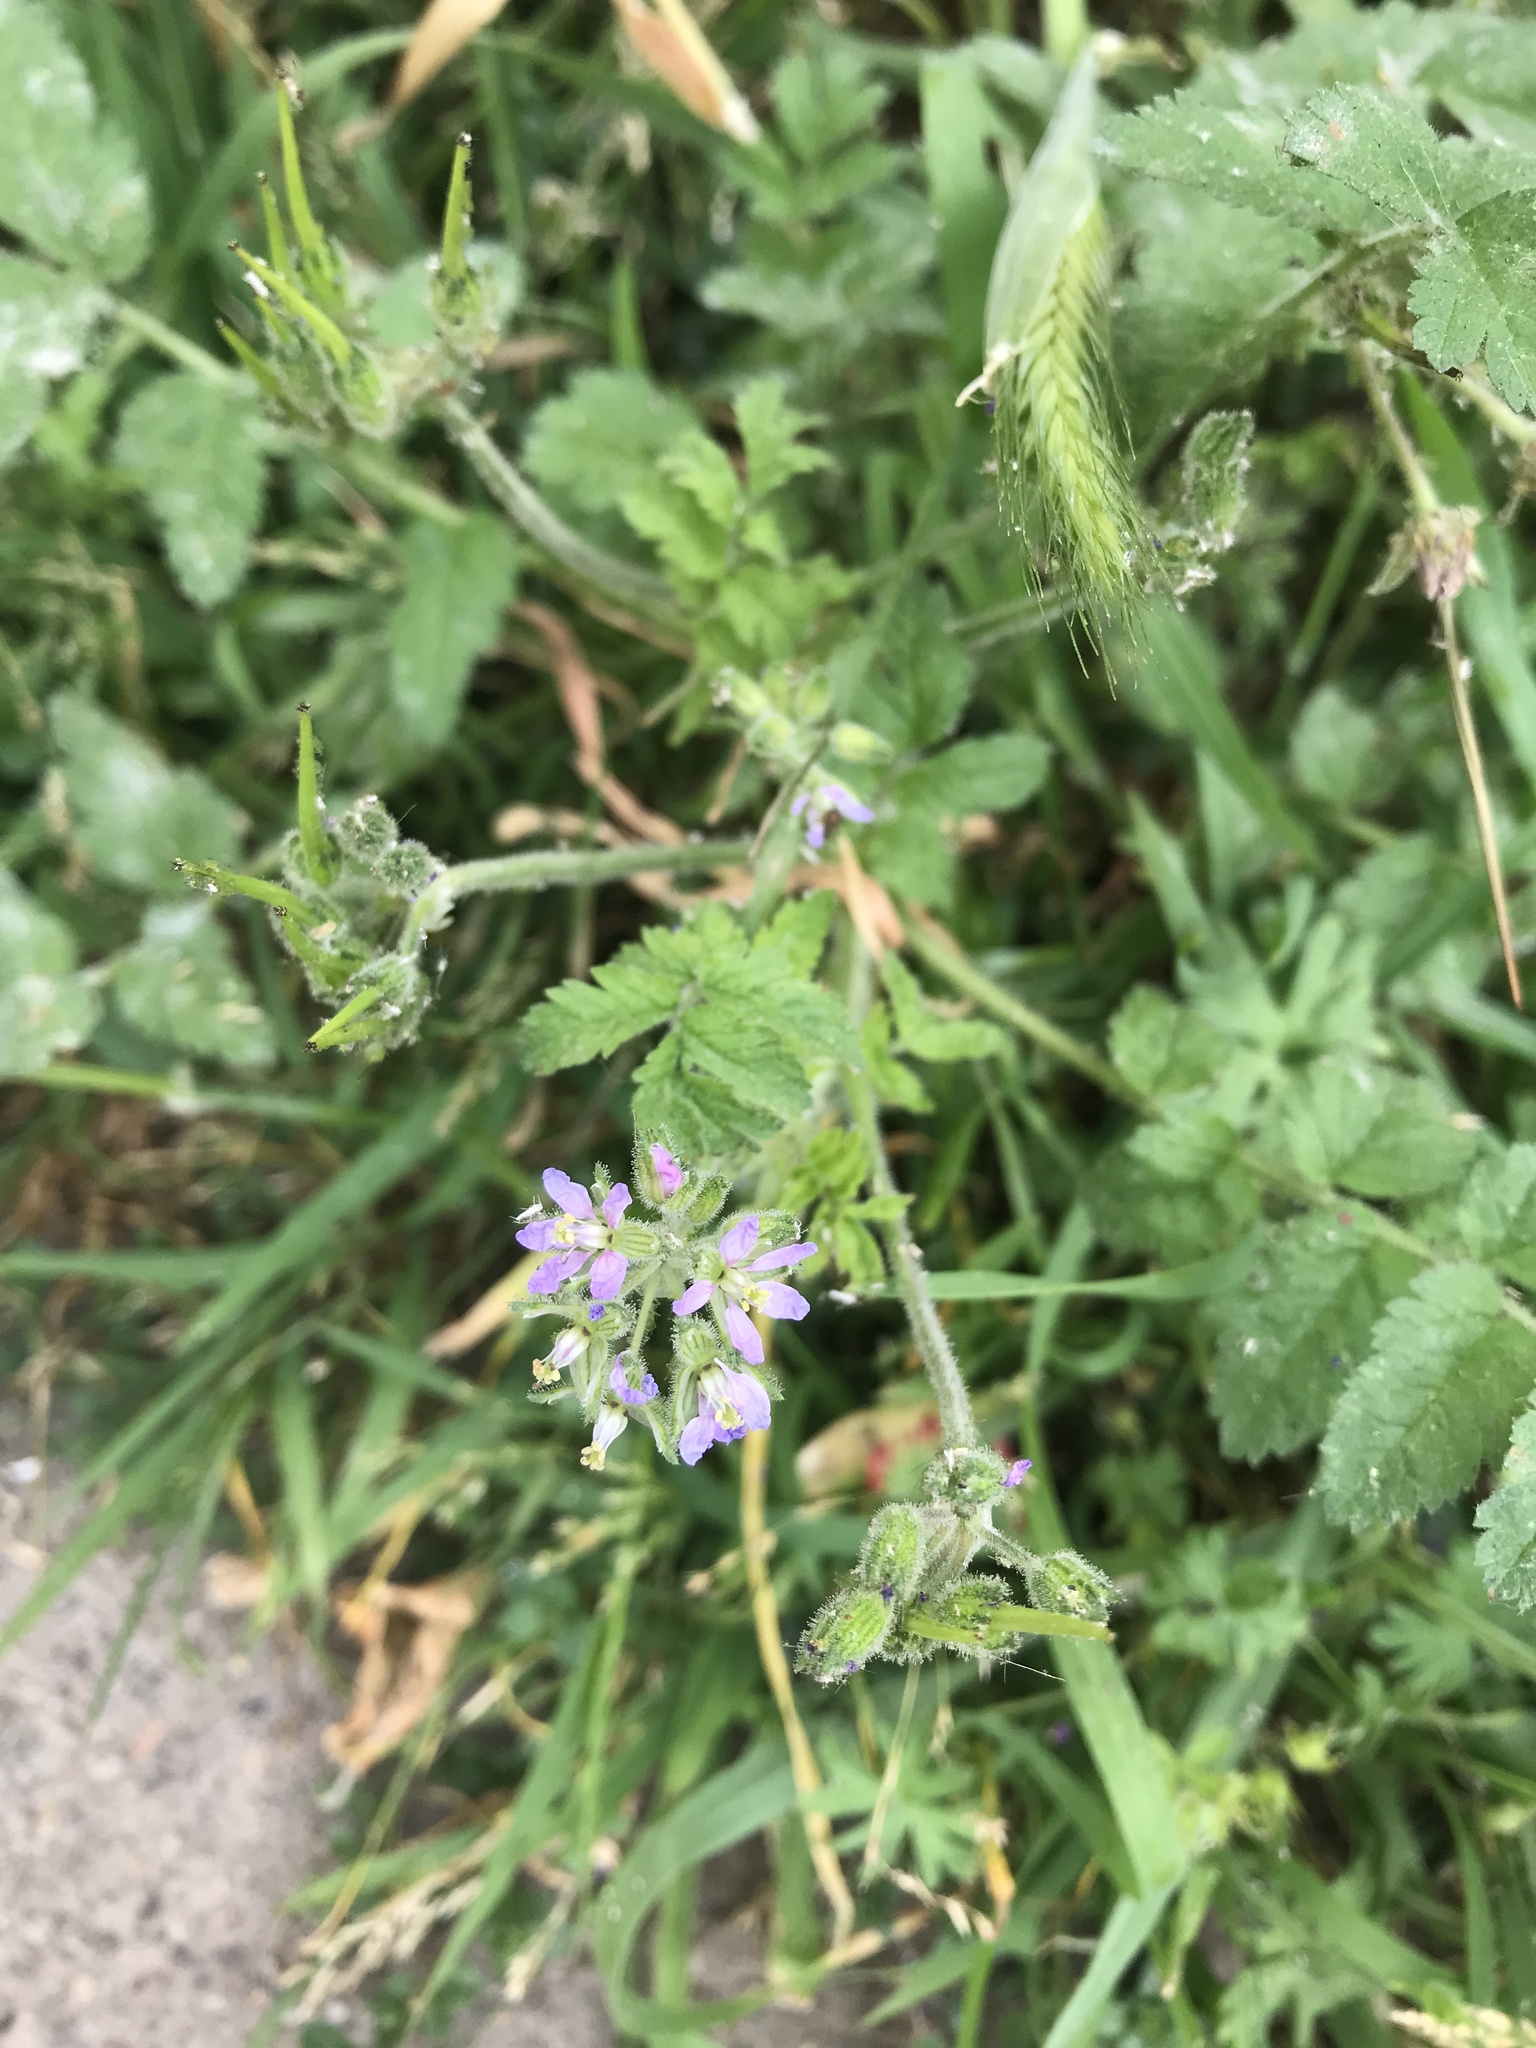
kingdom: Plantae
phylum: Tracheophyta
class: Magnoliopsida
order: Geraniales
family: Geraniaceae
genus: Erodium
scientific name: Erodium moschatum
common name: Musk stork's-bill
